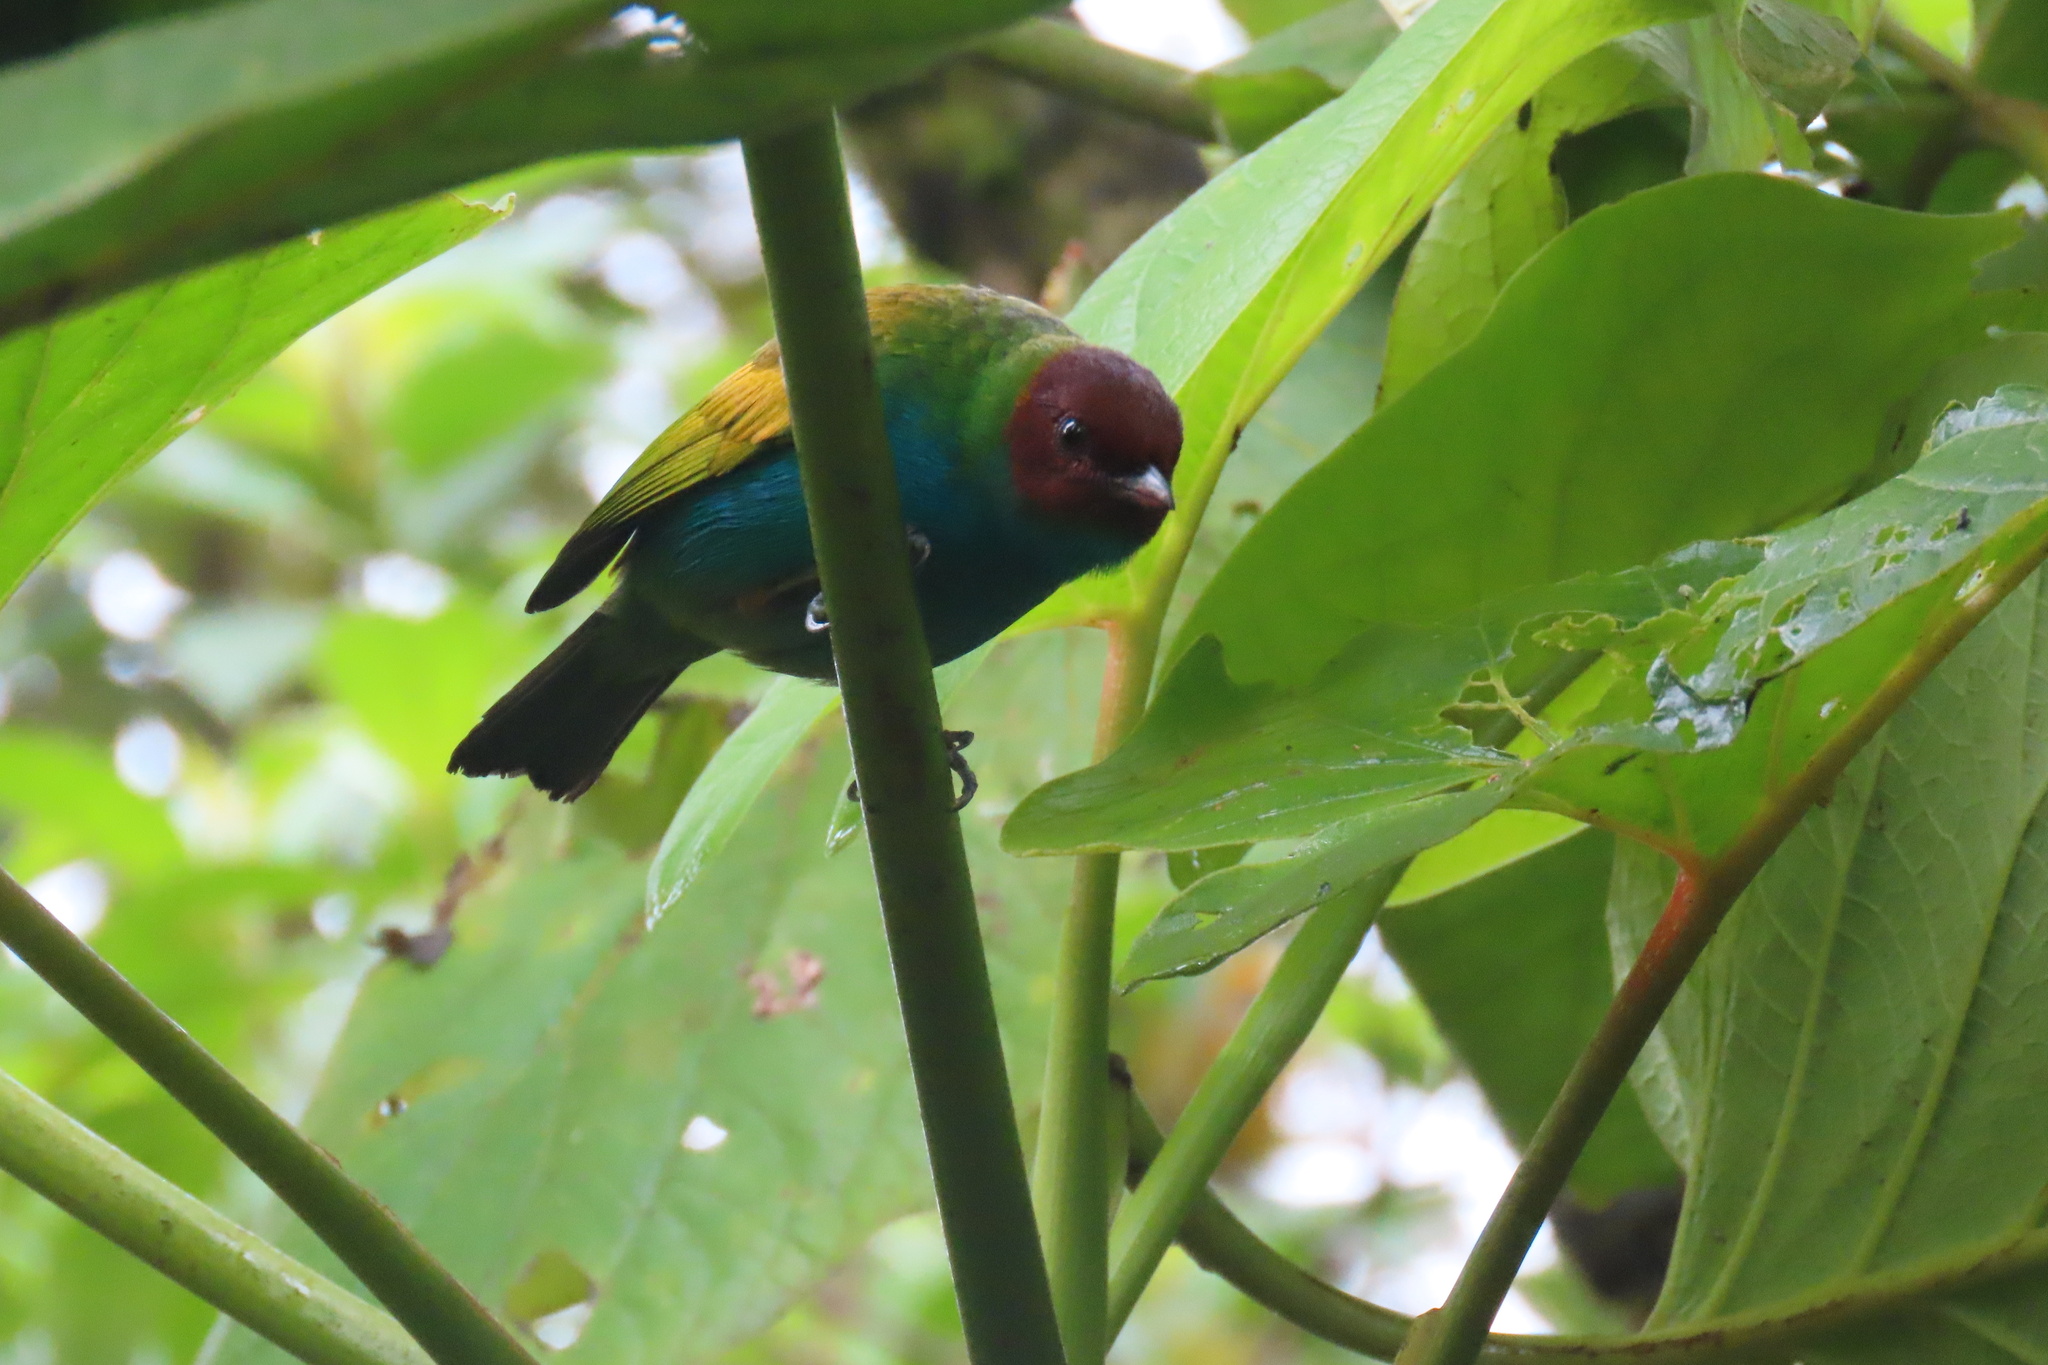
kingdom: Animalia
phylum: Chordata
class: Aves
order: Passeriformes
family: Thraupidae
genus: Tangara
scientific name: Tangara gyrola
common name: Bay-headed tanager
